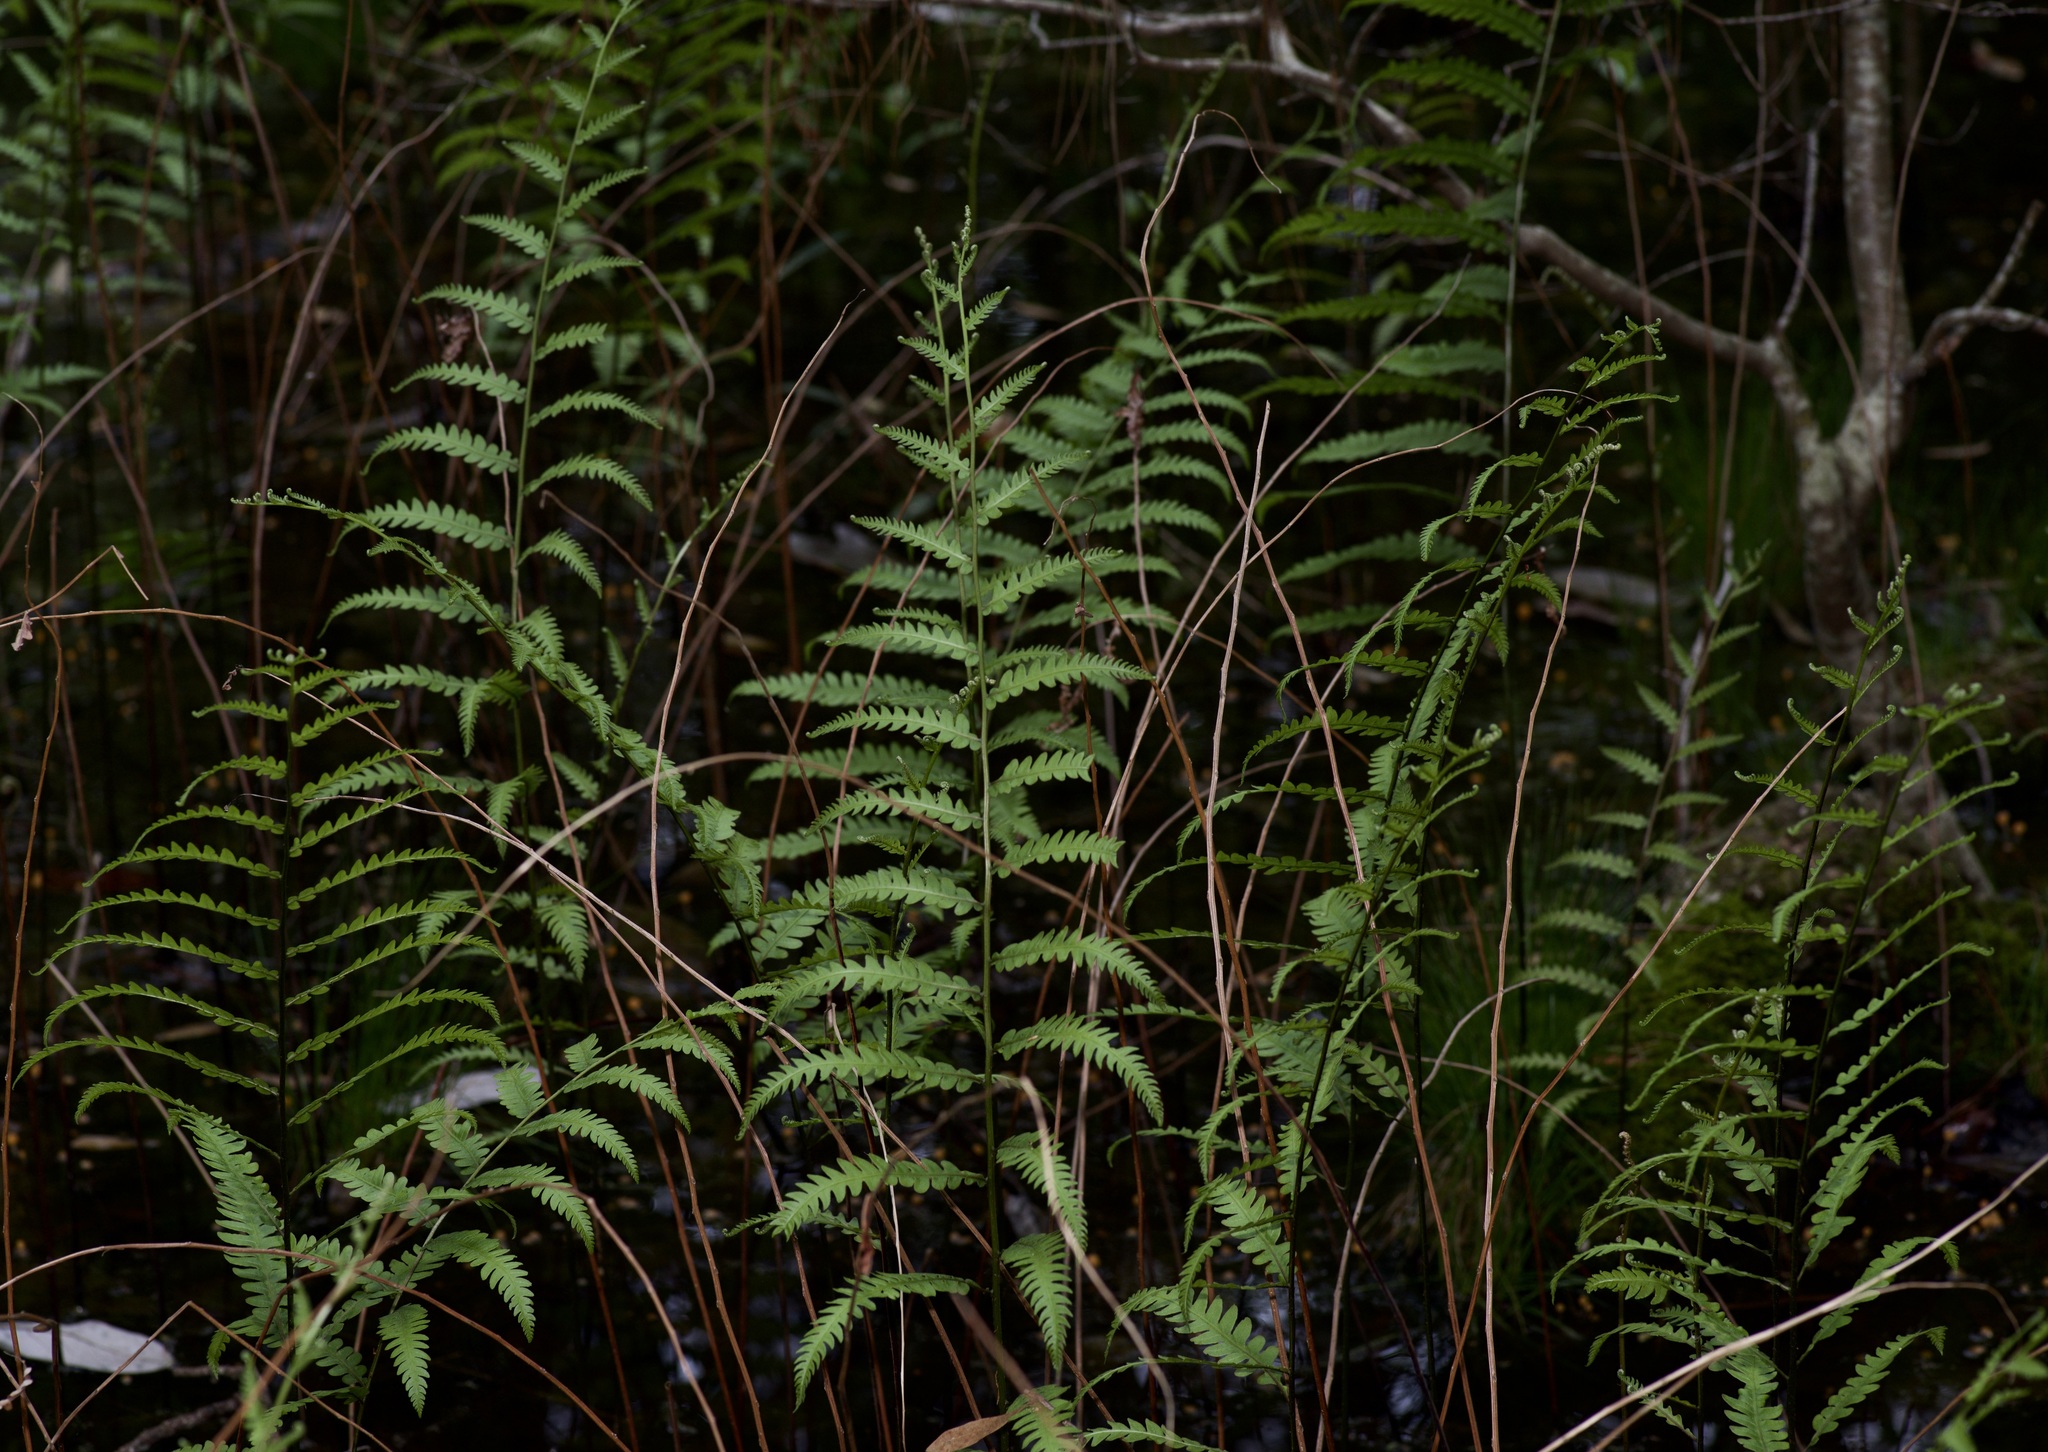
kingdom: Plantae
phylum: Tracheophyta
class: Polypodiopsida
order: Polypodiales
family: Blechnaceae
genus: Anchistea
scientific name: Anchistea virginica
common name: Virginia chain fern
